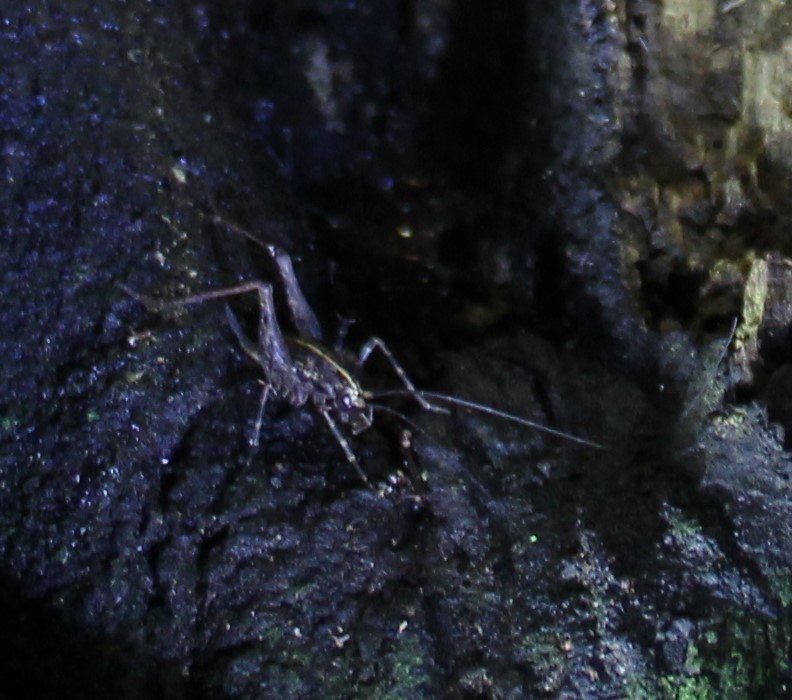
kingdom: Animalia
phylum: Arthropoda
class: Insecta
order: Orthoptera
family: Rhaphidophoridae
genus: Pleioplectron
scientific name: Pleioplectron hudsoni
